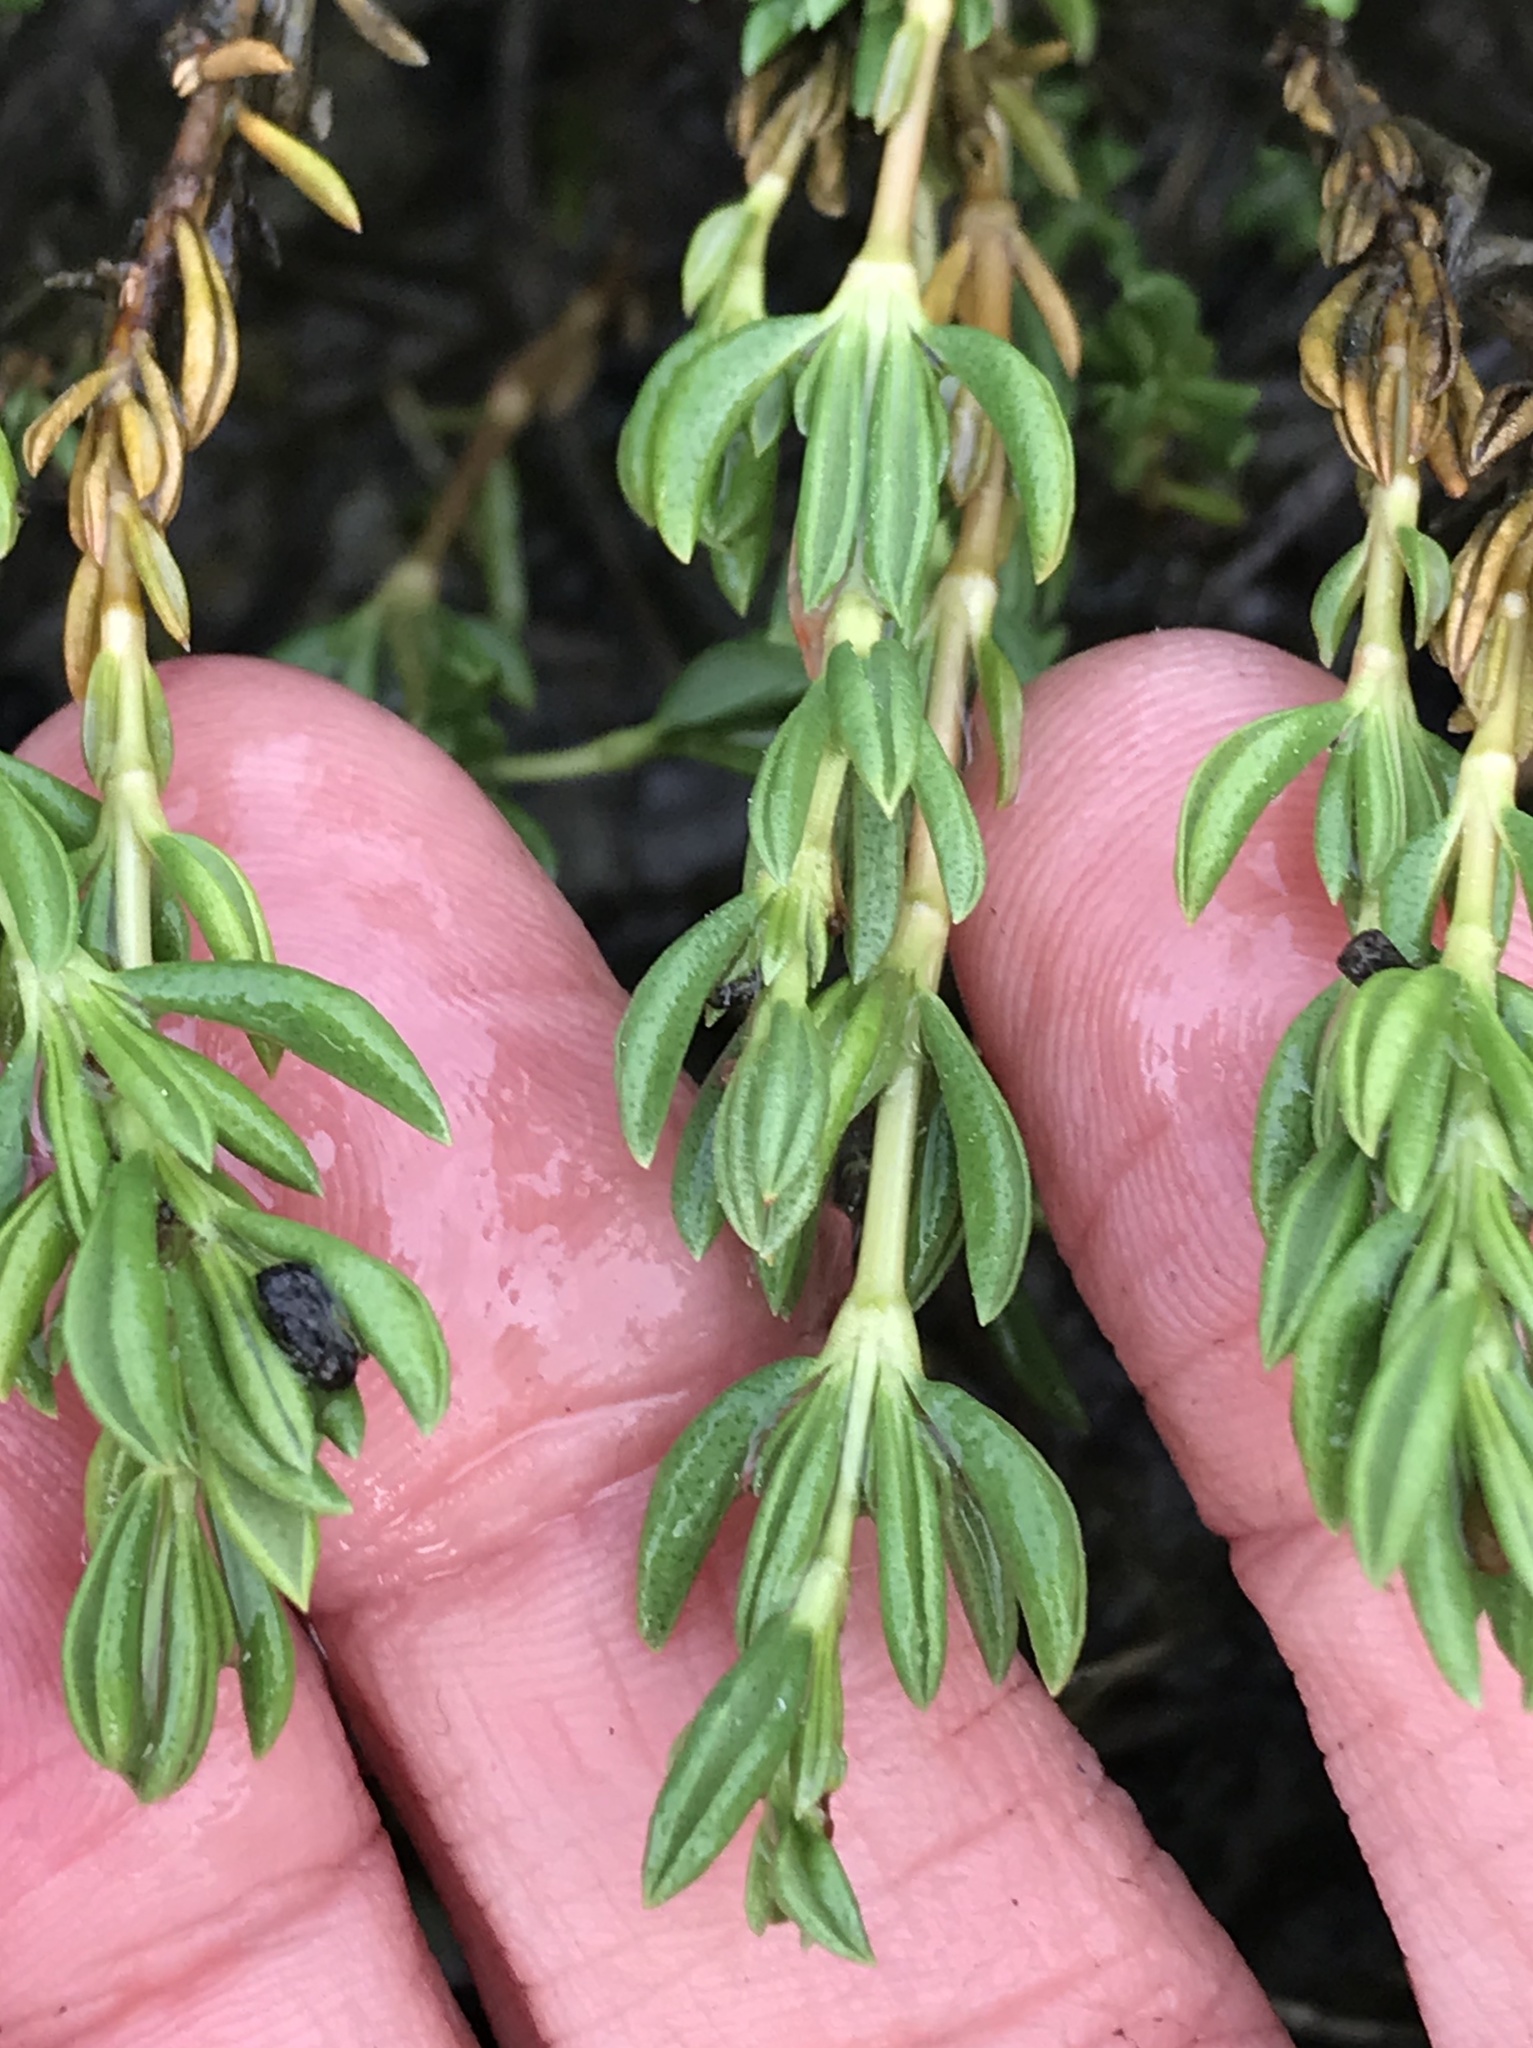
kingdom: Plantae
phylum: Tracheophyta
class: Magnoliopsida
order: Caryophyllales
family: Frankeniaceae
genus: Frankenia
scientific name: Frankenia salina
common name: Alkali seaheath
